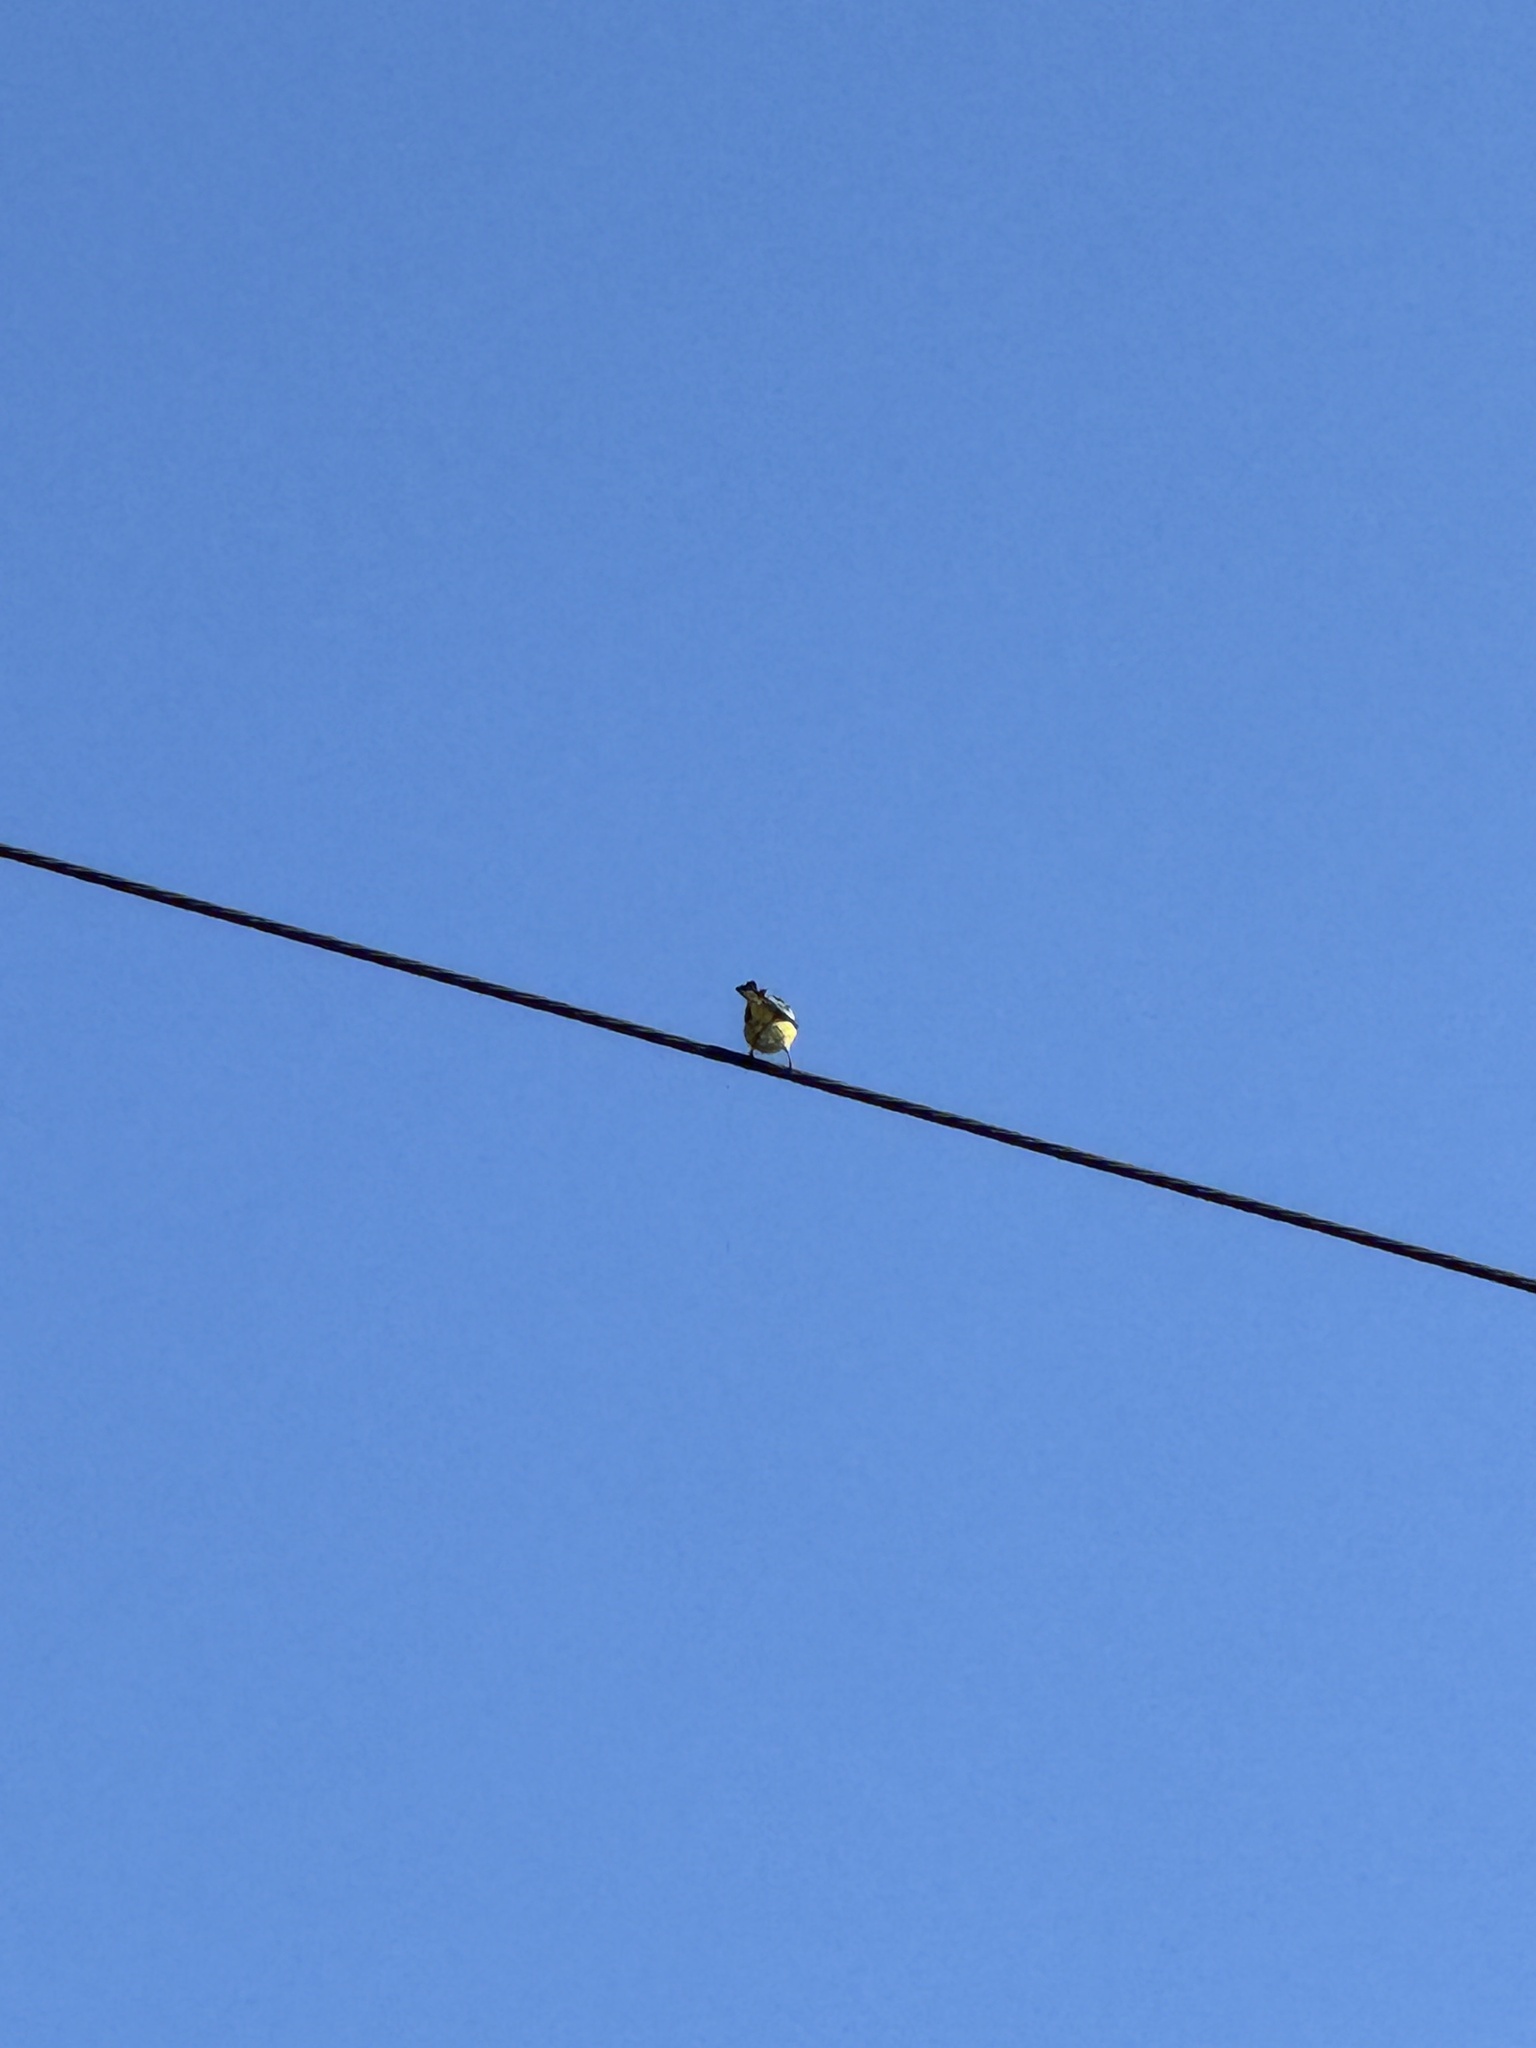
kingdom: Animalia
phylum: Chordata
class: Aves
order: Passeriformes
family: Fringillidae
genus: Spinus
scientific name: Spinus psaltria
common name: Lesser goldfinch
